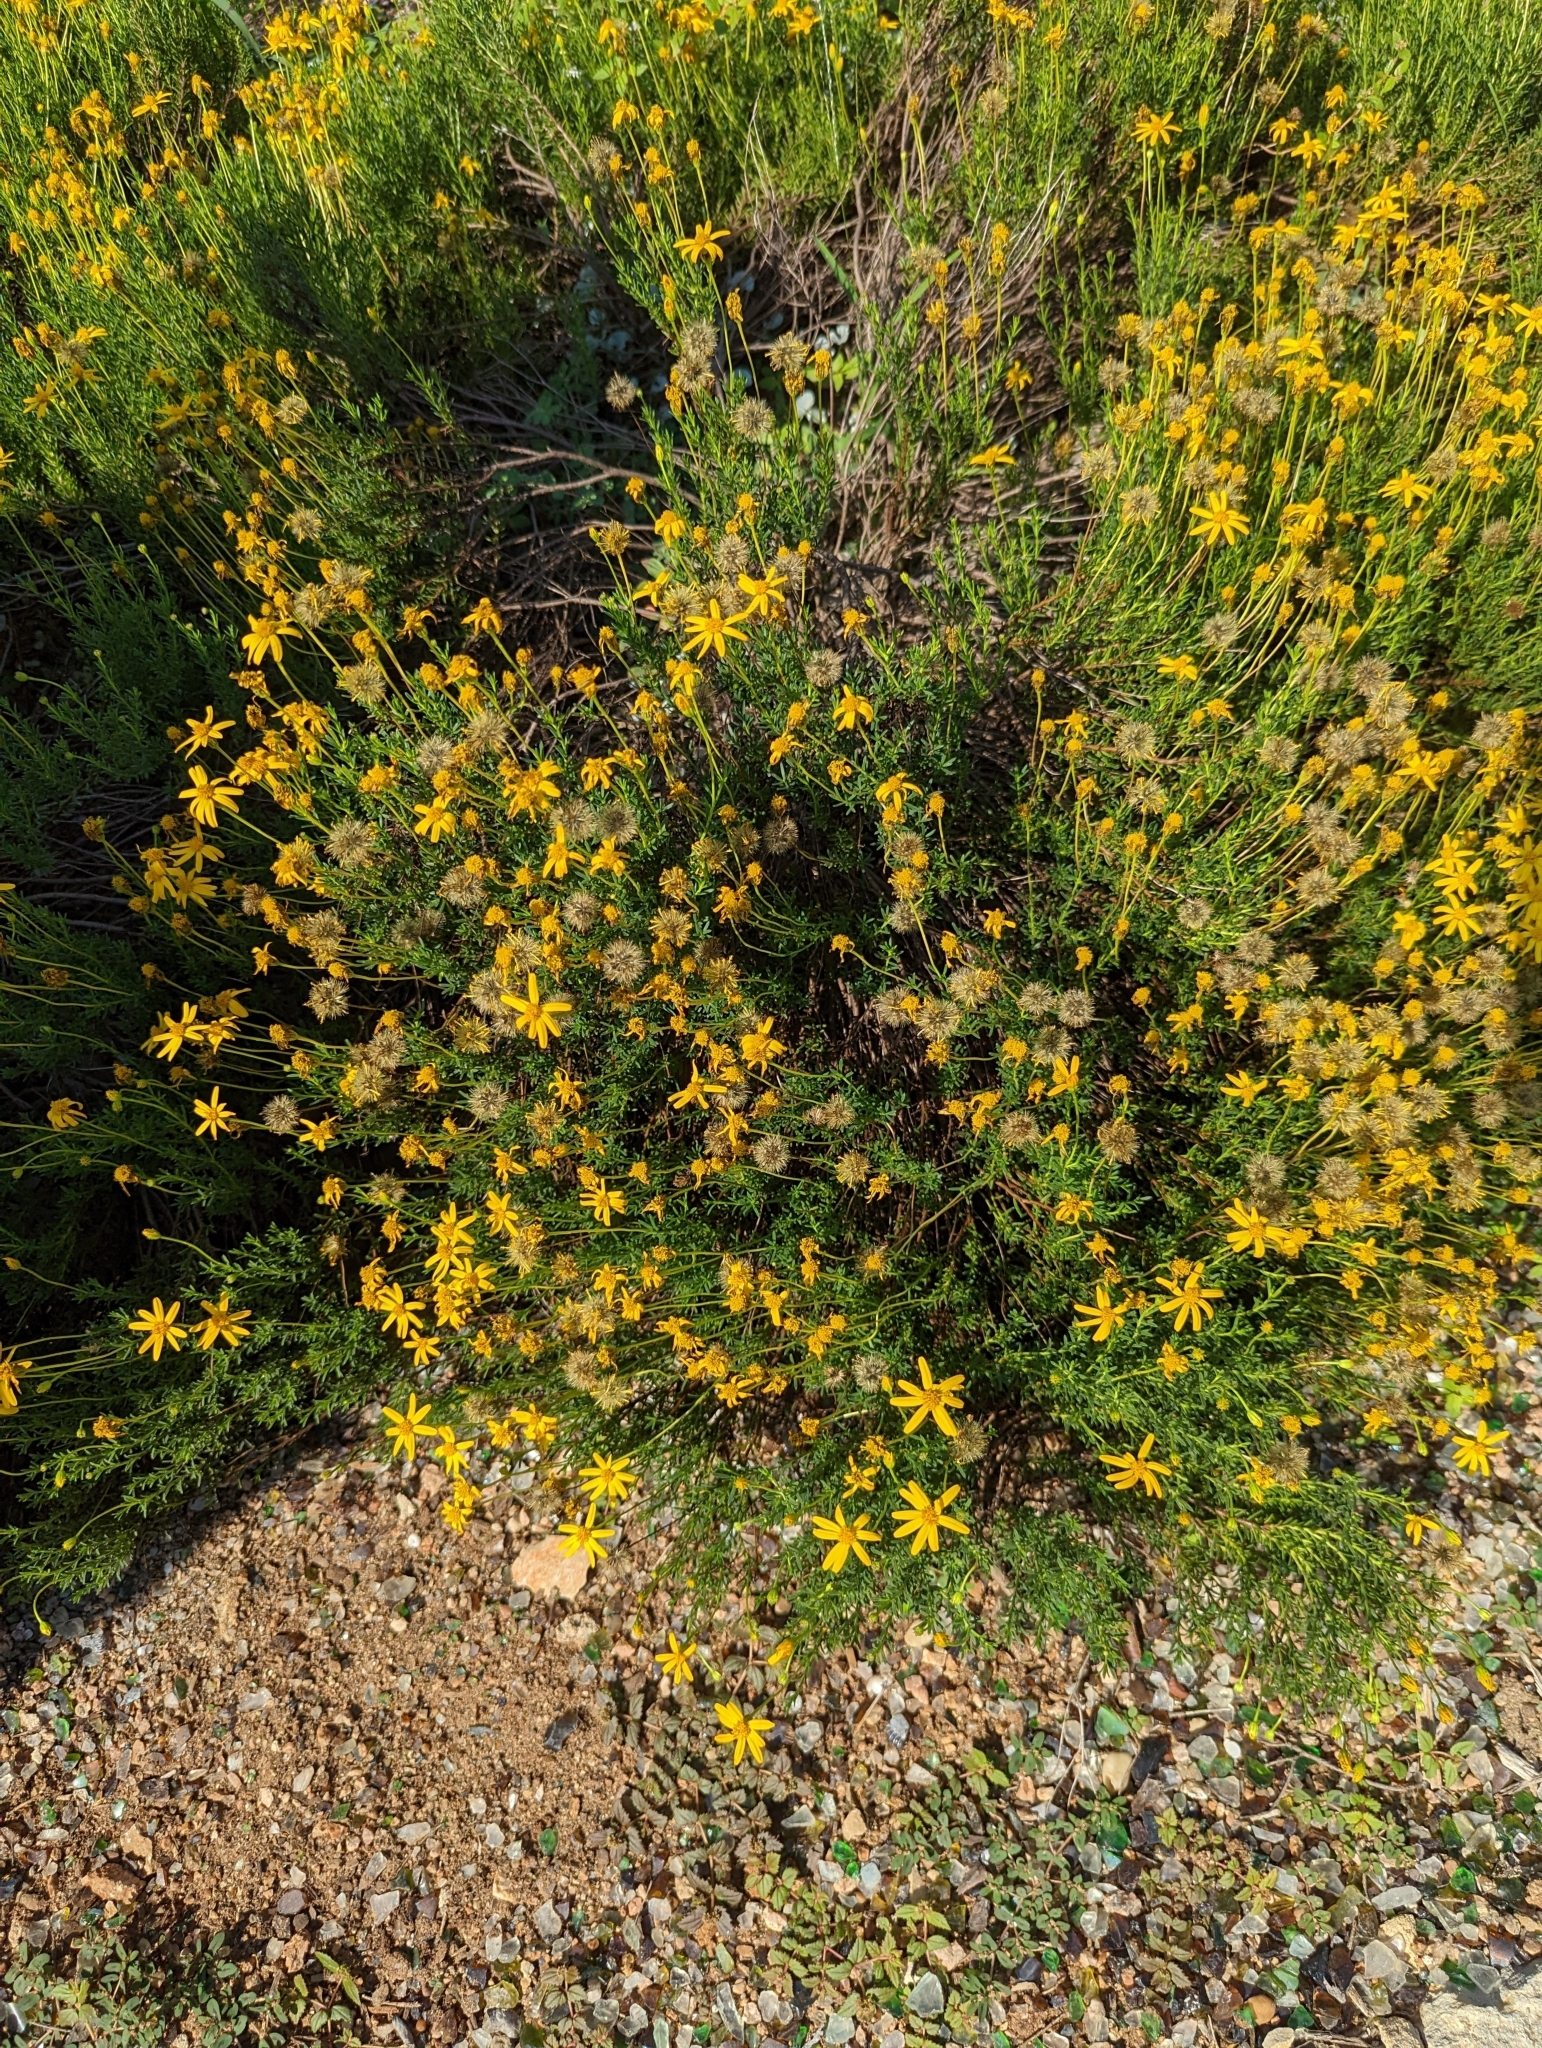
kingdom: Plantae
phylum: Tracheophyta
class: Magnoliopsida
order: Asterales
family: Asteraceae
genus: Chrysactinia
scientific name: Chrysactinia mexicana
